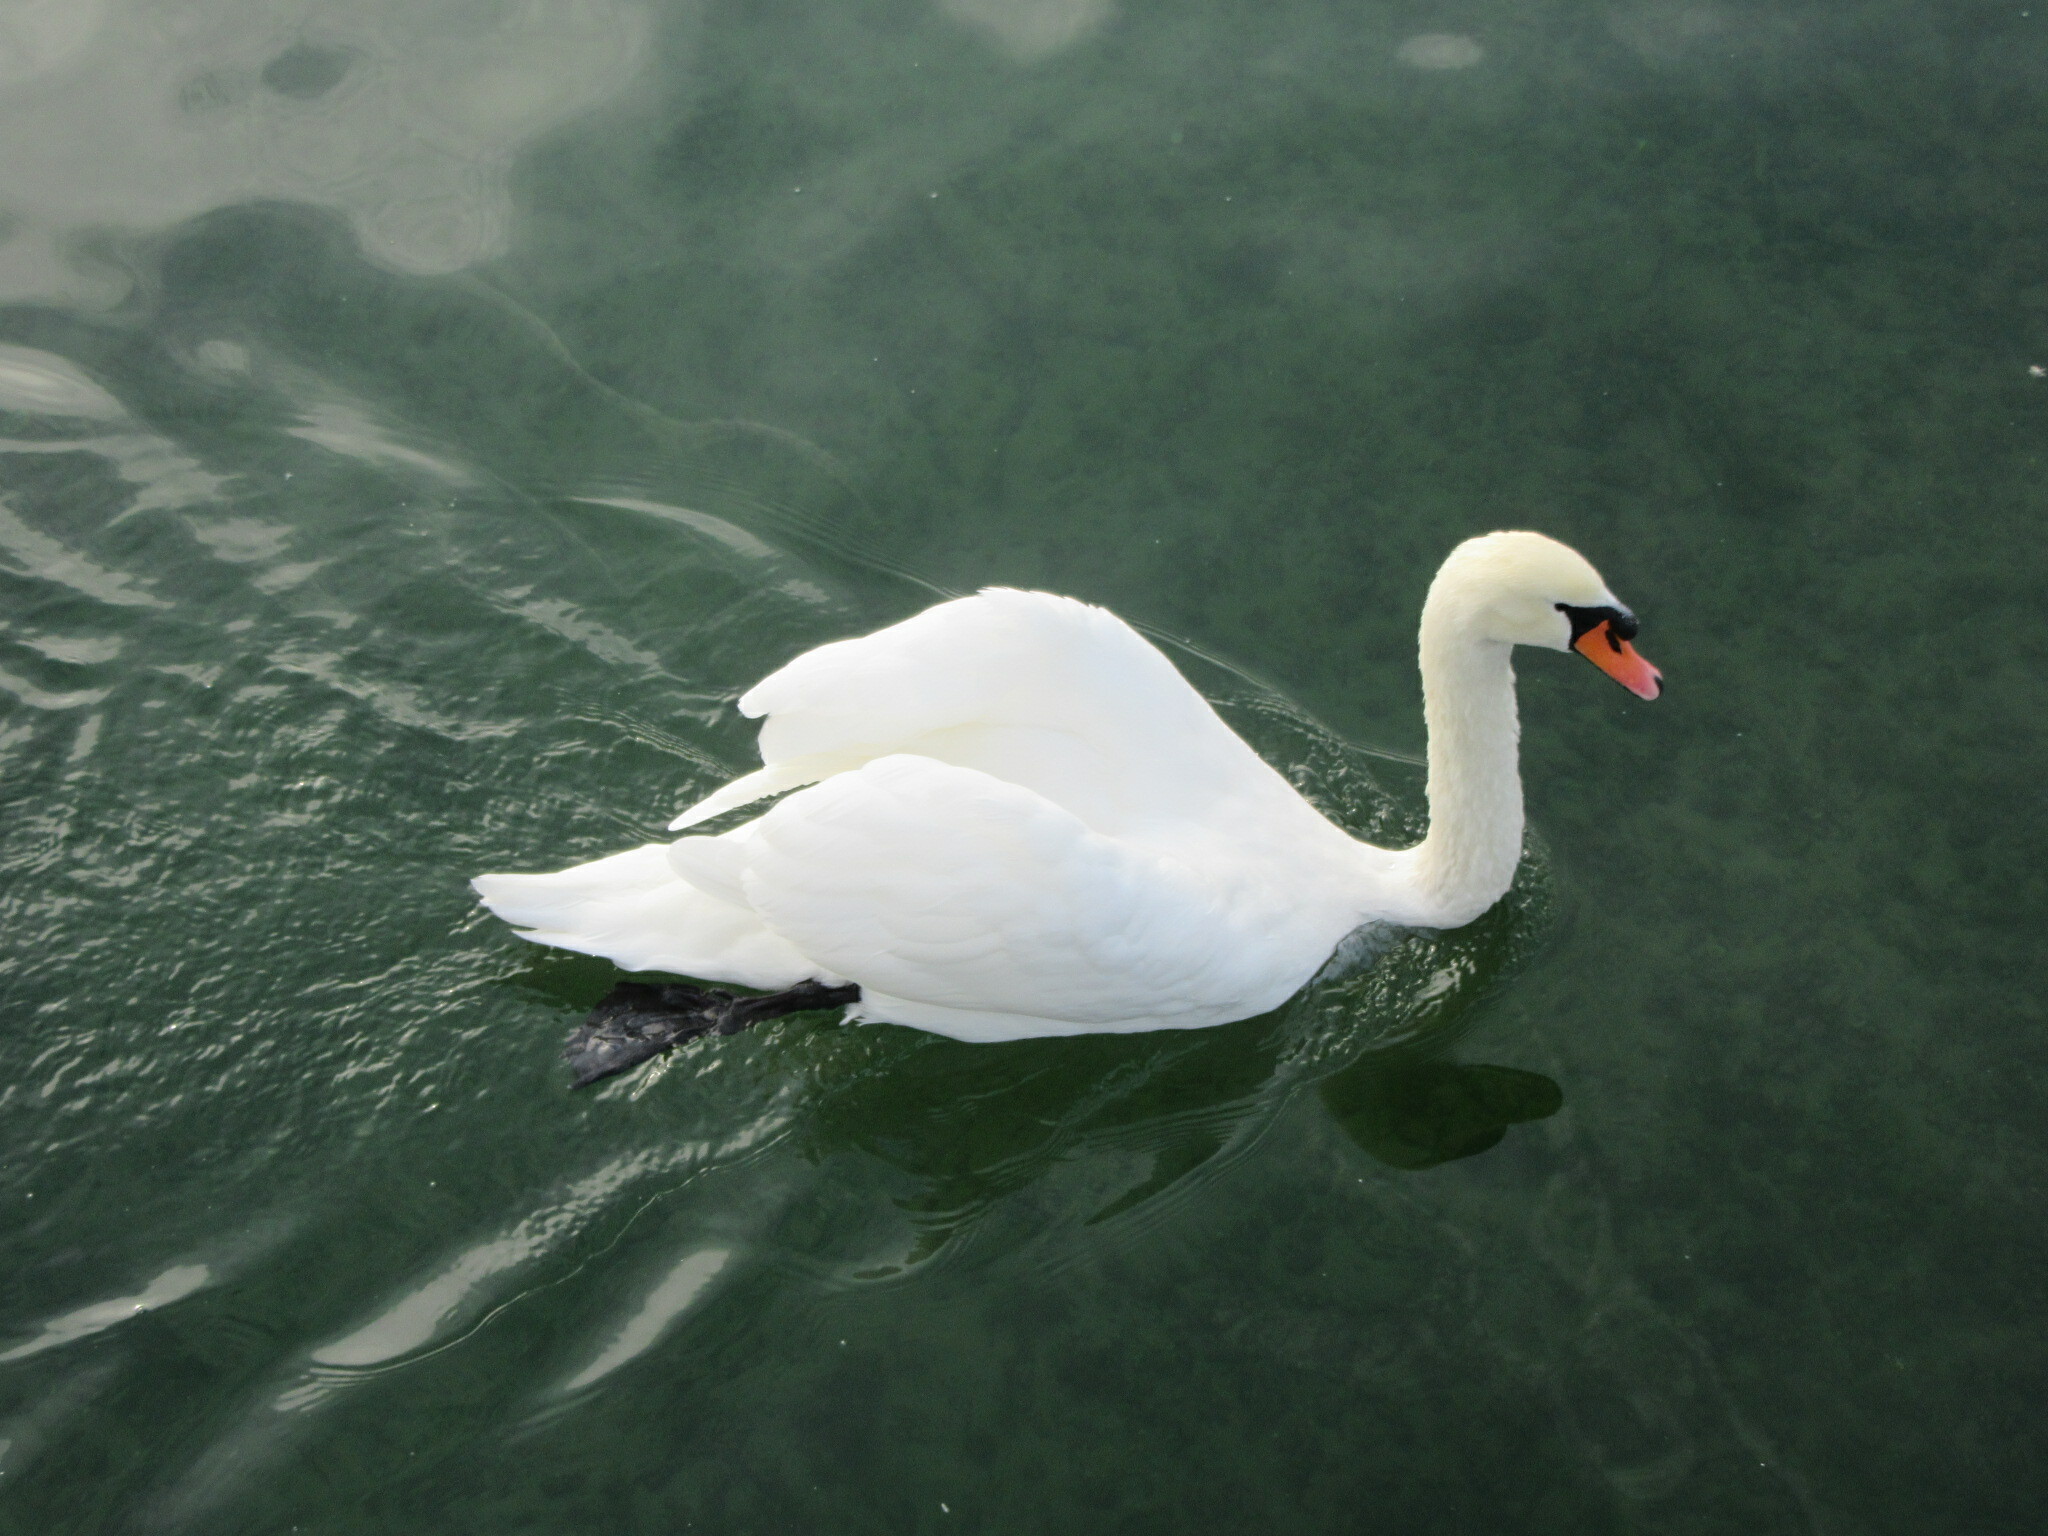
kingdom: Animalia
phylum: Chordata
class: Aves
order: Anseriformes
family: Anatidae
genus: Cygnus
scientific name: Cygnus olor
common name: Mute swan
